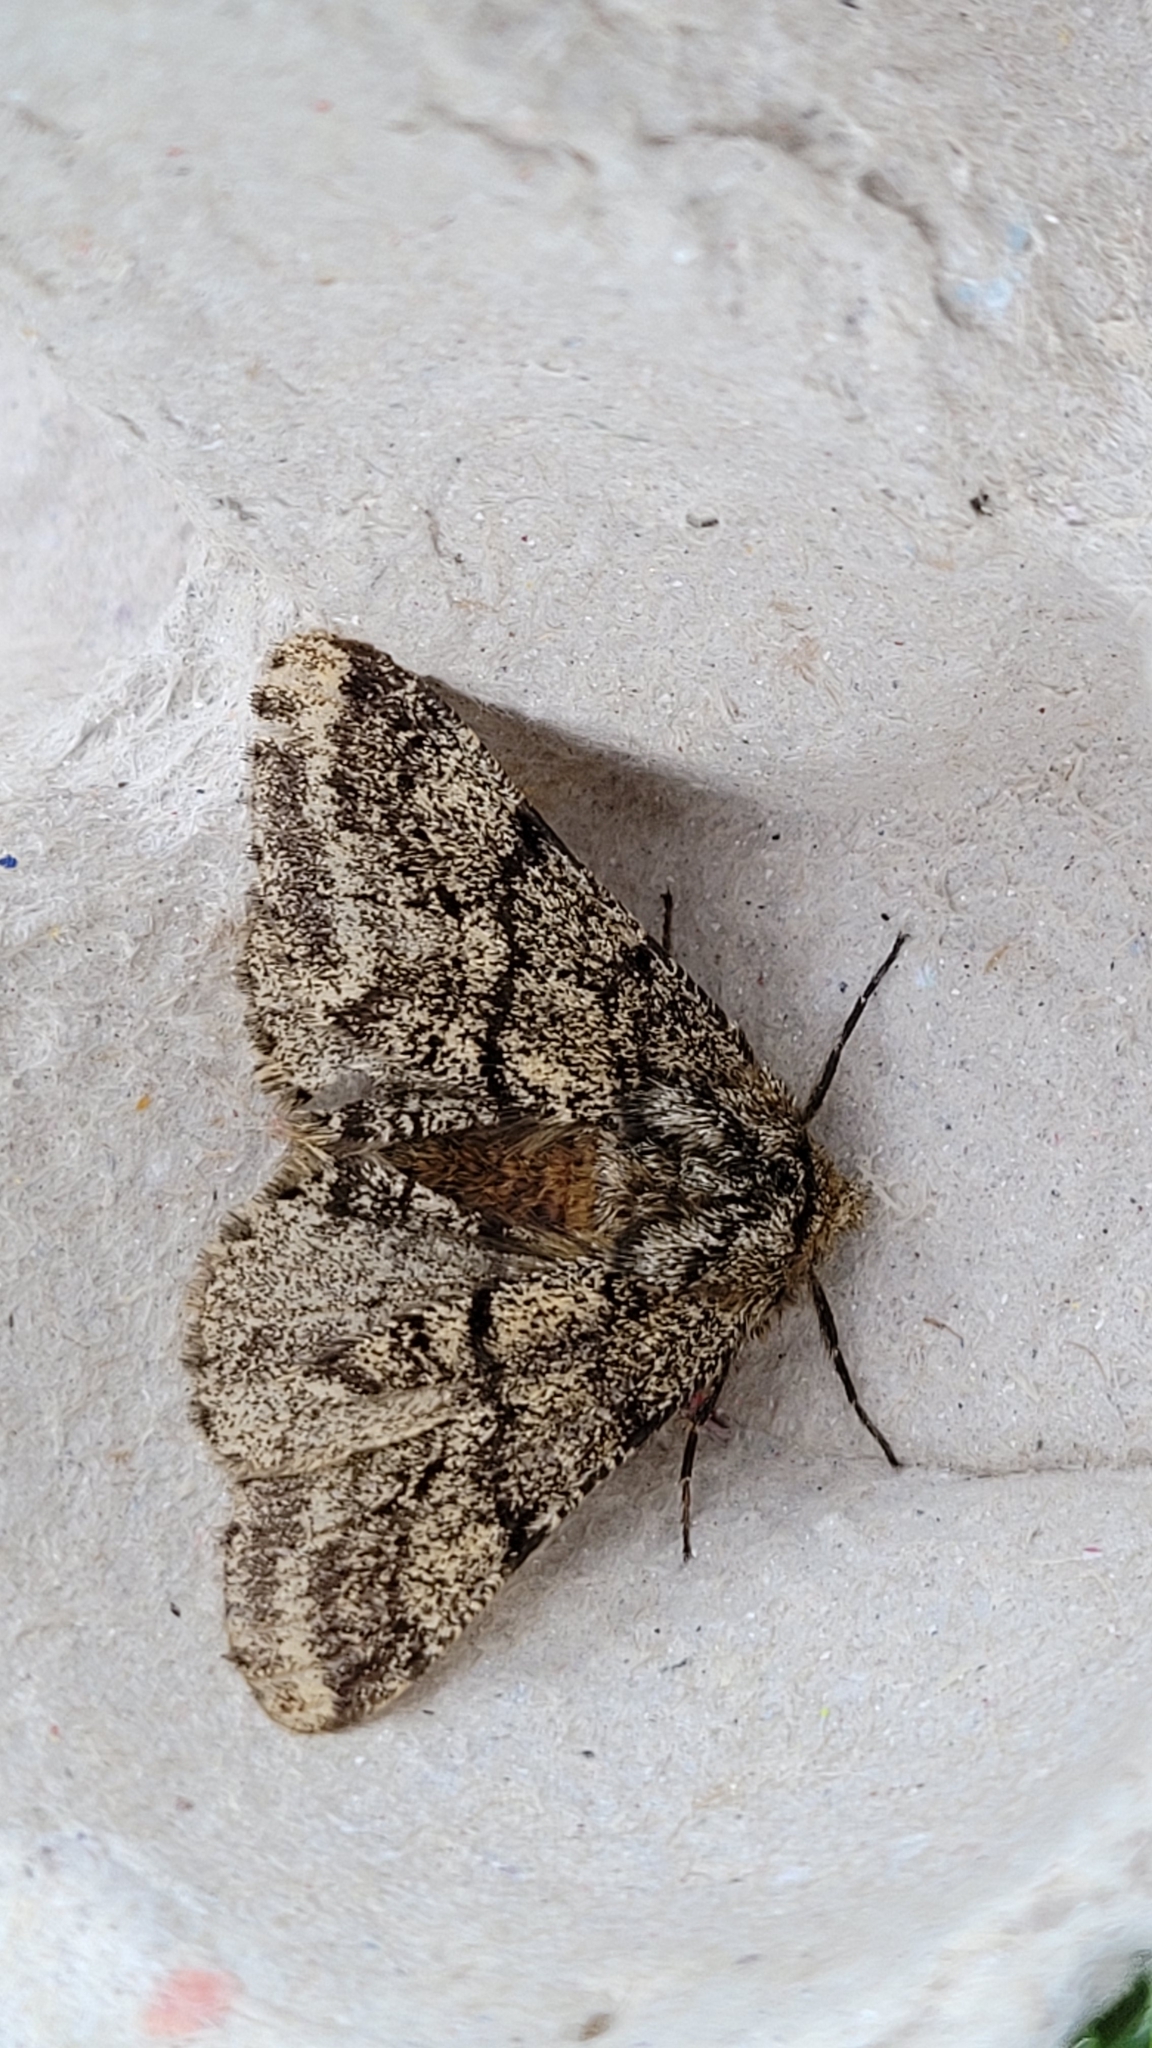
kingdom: Animalia
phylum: Arthropoda
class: Insecta
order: Lepidoptera
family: Geometridae
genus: Lycia
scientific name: Lycia hirtaria
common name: Brindled beauty
